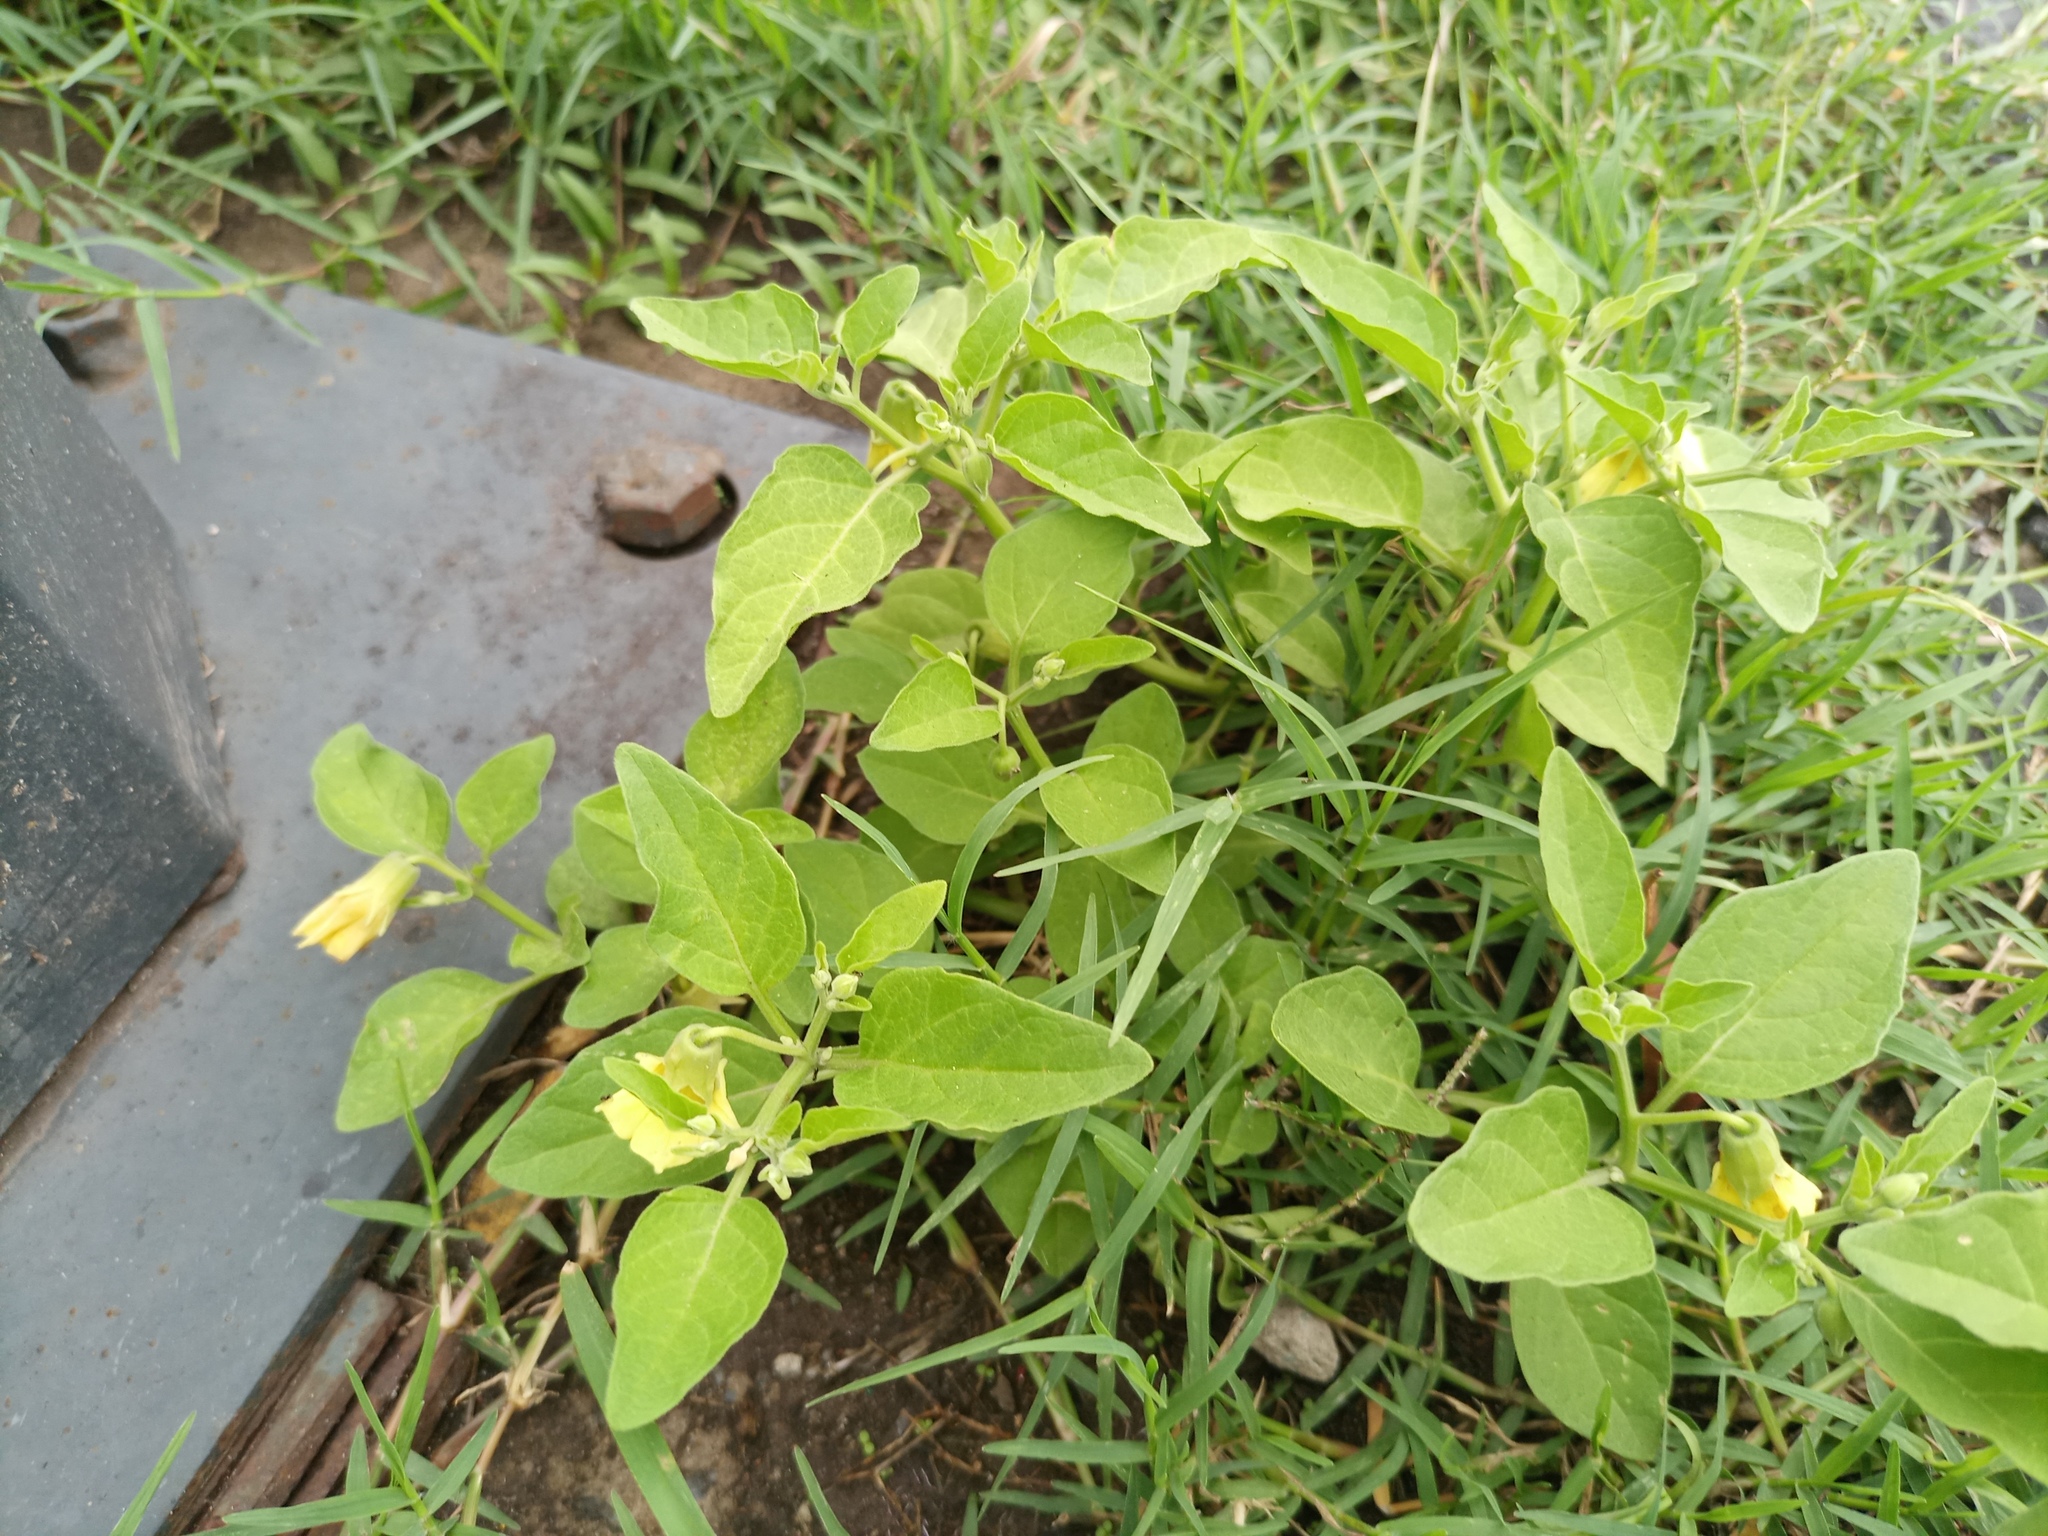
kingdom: Plantae
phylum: Tracheophyta
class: Magnoliopsida
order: Solanales
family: Solanaceae
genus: Physalis
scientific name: Physalis viscosa
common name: Stellate ground-cherry
